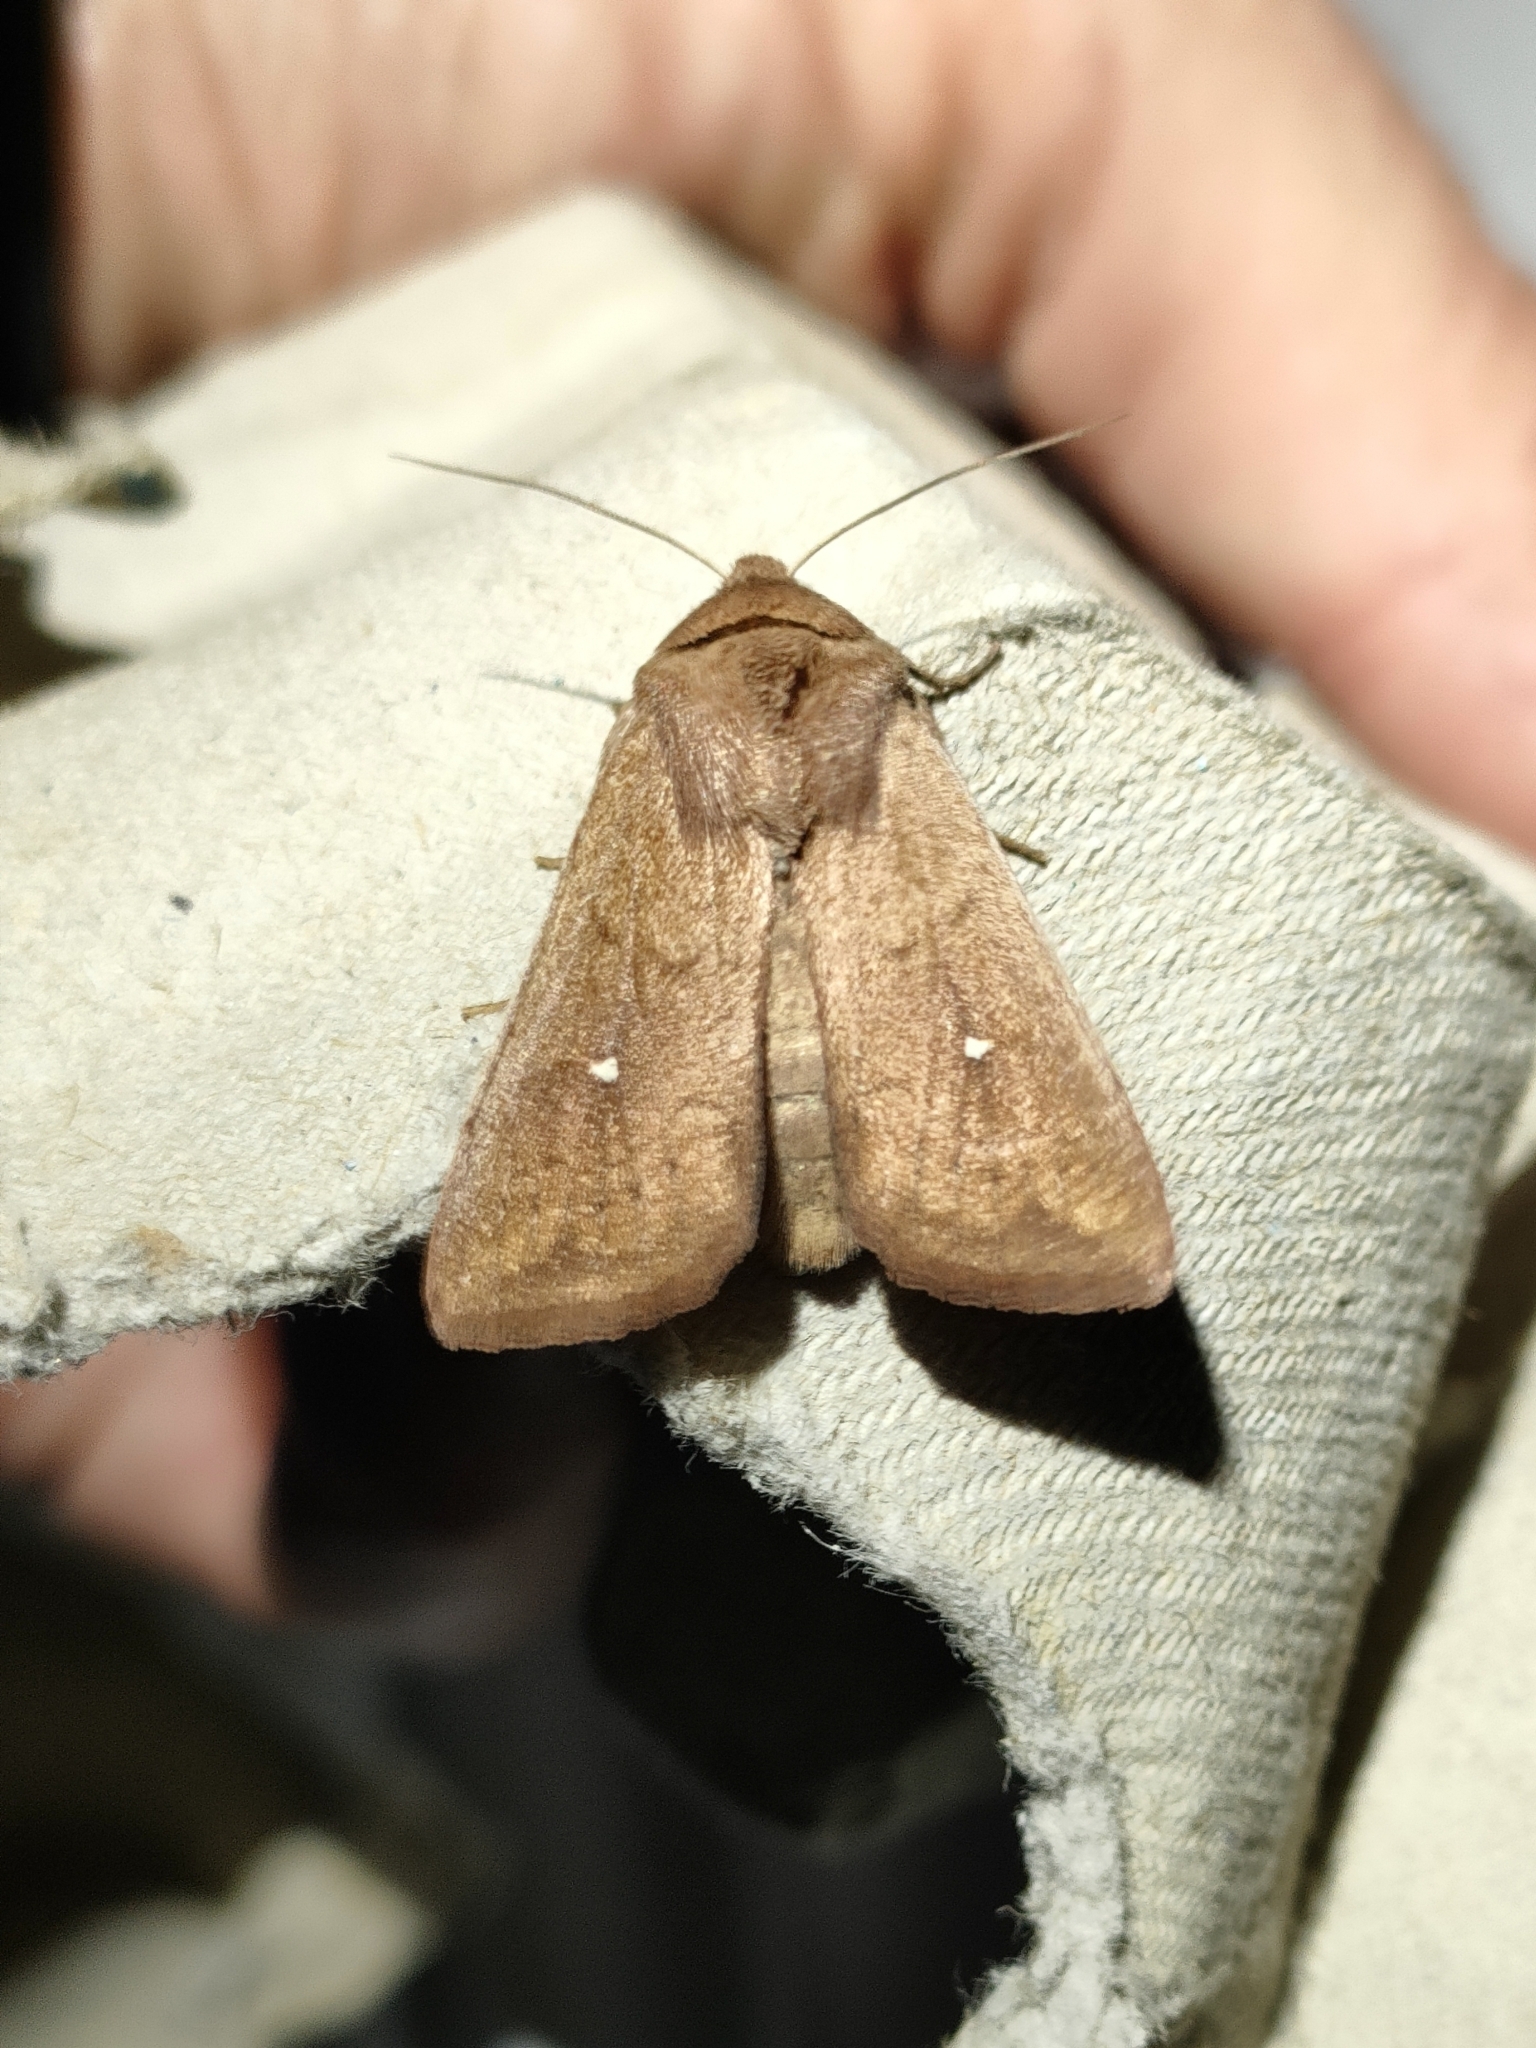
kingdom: Animalia
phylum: Arthropoda
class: Insecta
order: Lepidoptera
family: Noctuidae
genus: Mythimna
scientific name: Mythimna albipuncta
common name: White-point
